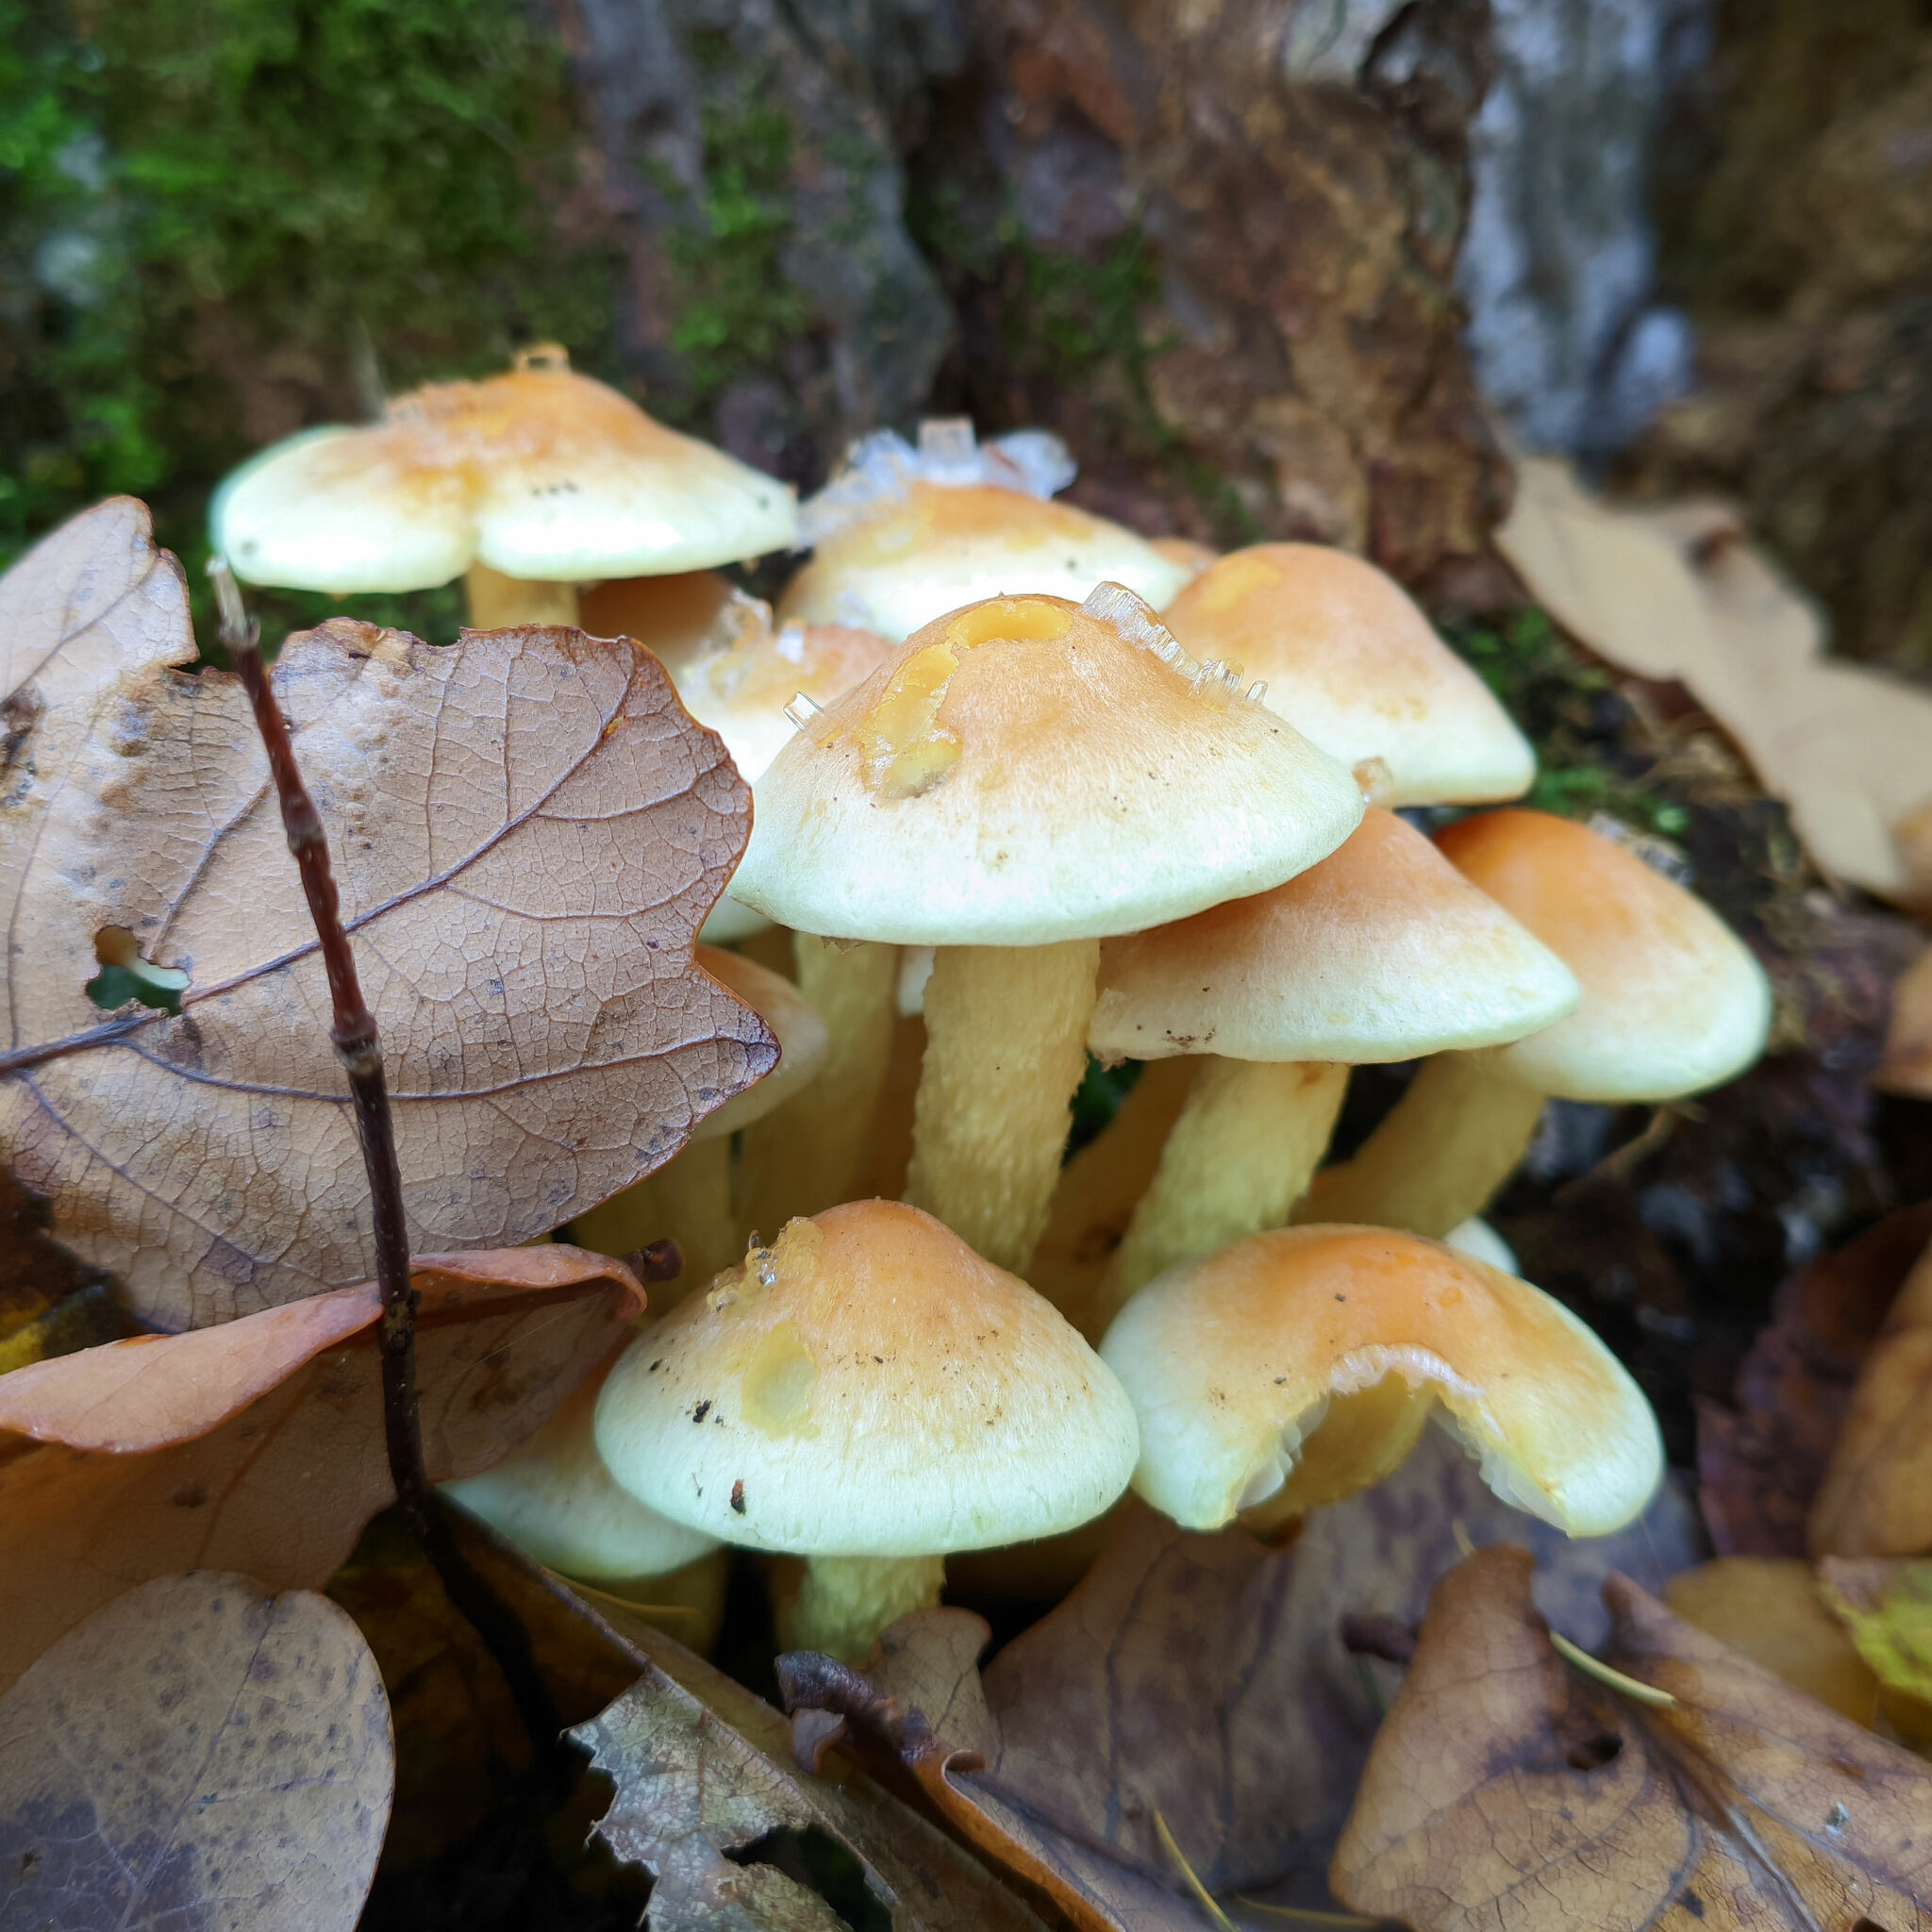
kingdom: Fungi
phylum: Basidiomycota
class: Agaricomycetes
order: Agaricales
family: Strophariaceae
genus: Hypholoma
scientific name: Hypholoma fasciculare
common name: Sulphur tuft
